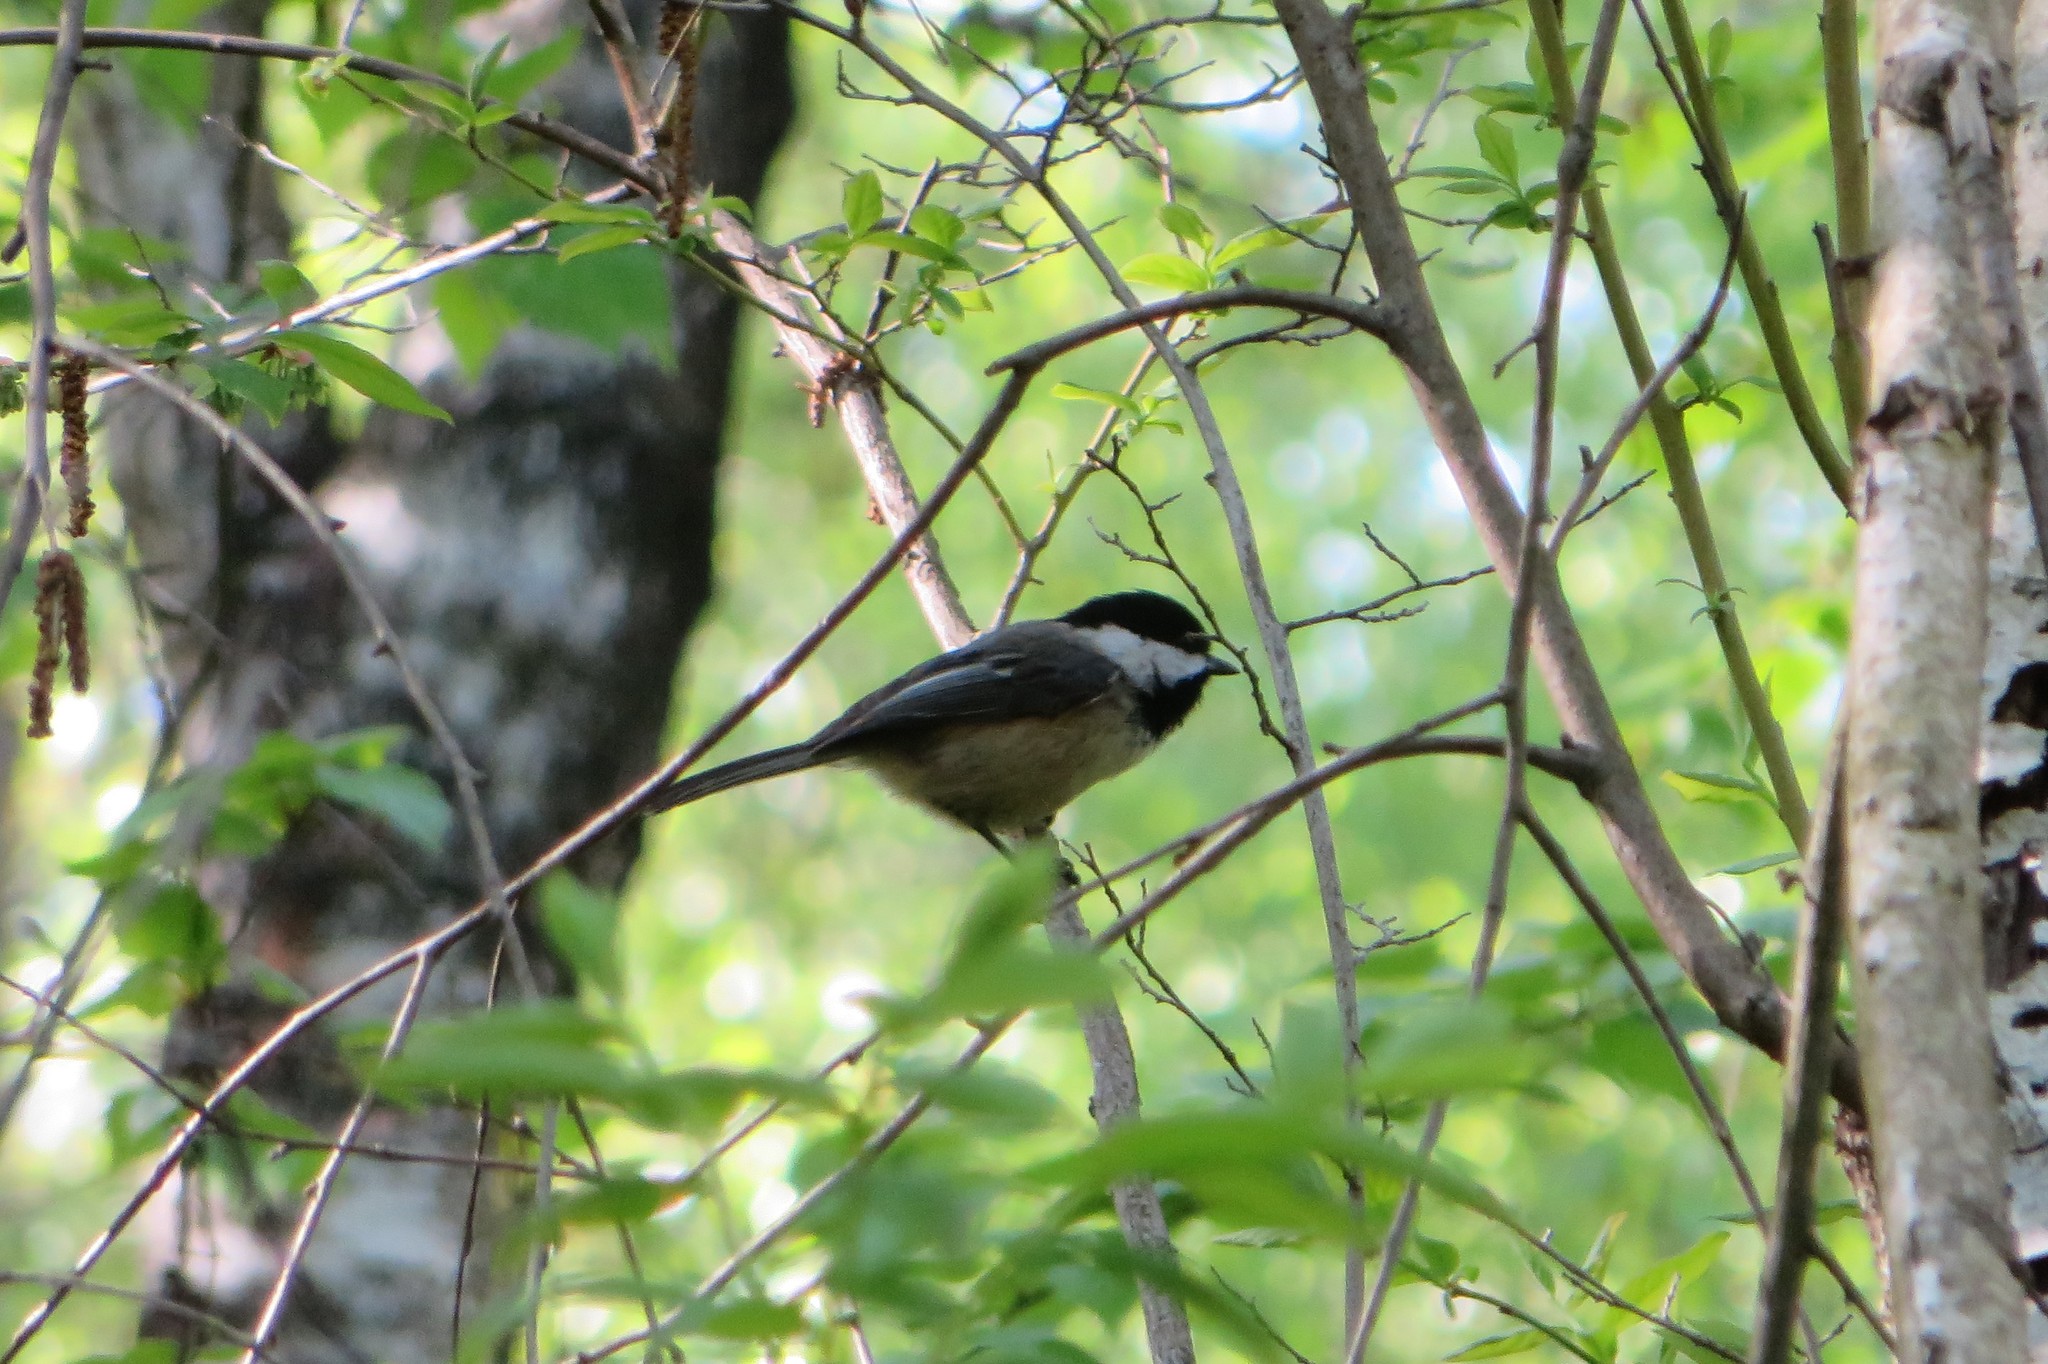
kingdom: Animalia
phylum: Chordata
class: Aves
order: Passeriformes
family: Paridae
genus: Poecile
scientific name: Poecile atricapillus
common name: Black-capped chickadee
